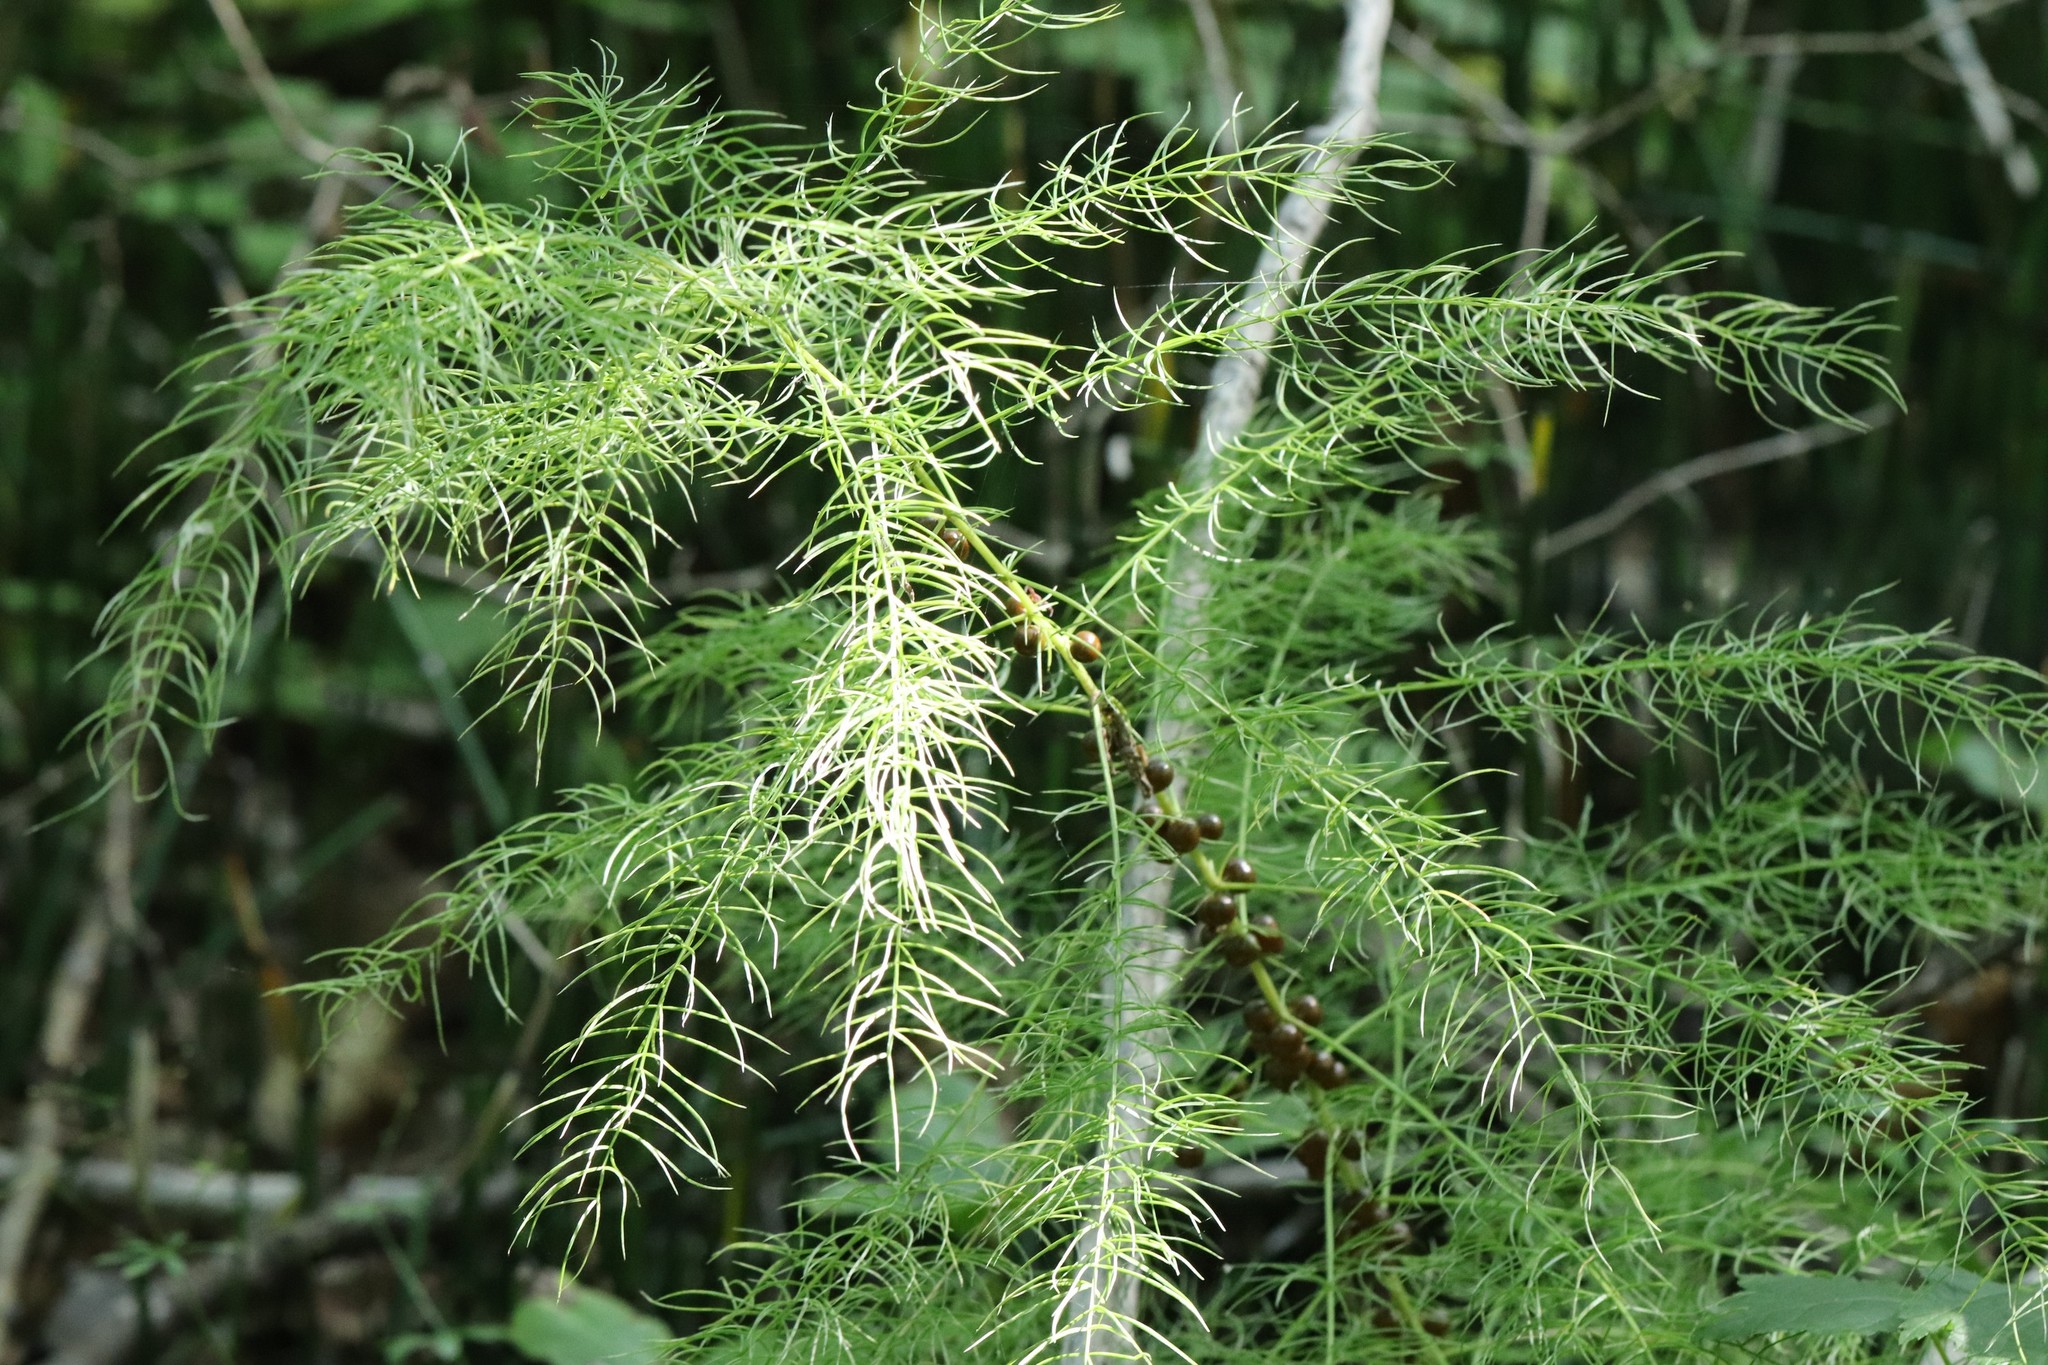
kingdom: Plantae
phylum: Tracheophyta
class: Liliopsida
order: Asparagales
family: Asparagaceae
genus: Asparagus
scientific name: Asparagus schoberioides
